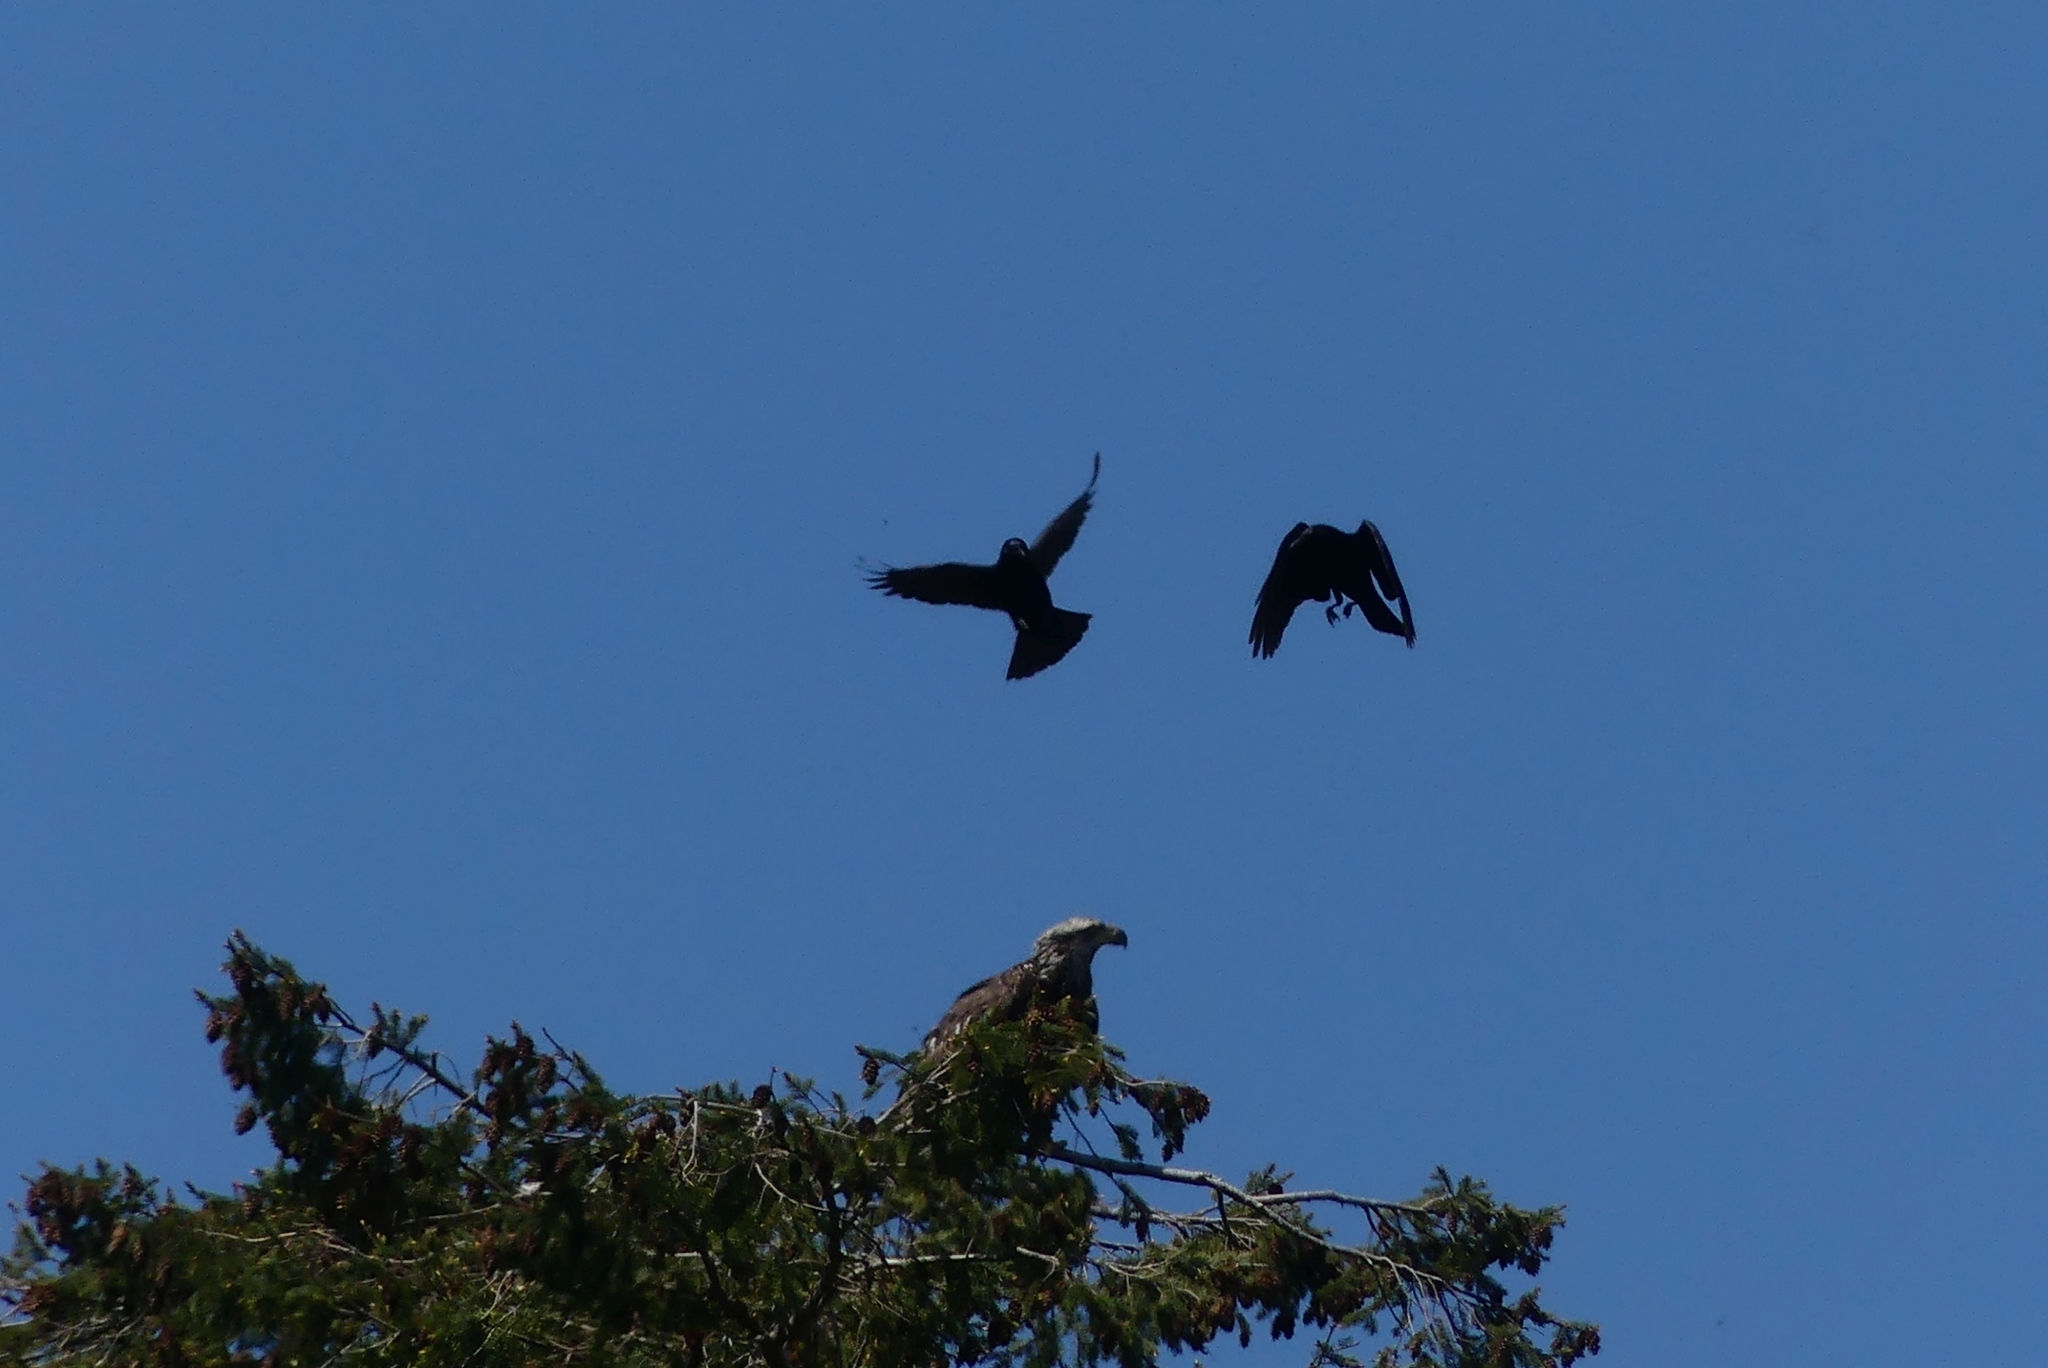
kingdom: Animalia
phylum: Chordata
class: Aves
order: Passeriformes
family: Corvidae
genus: Corvus
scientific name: Corvus brachyrhynchos
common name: American crow
